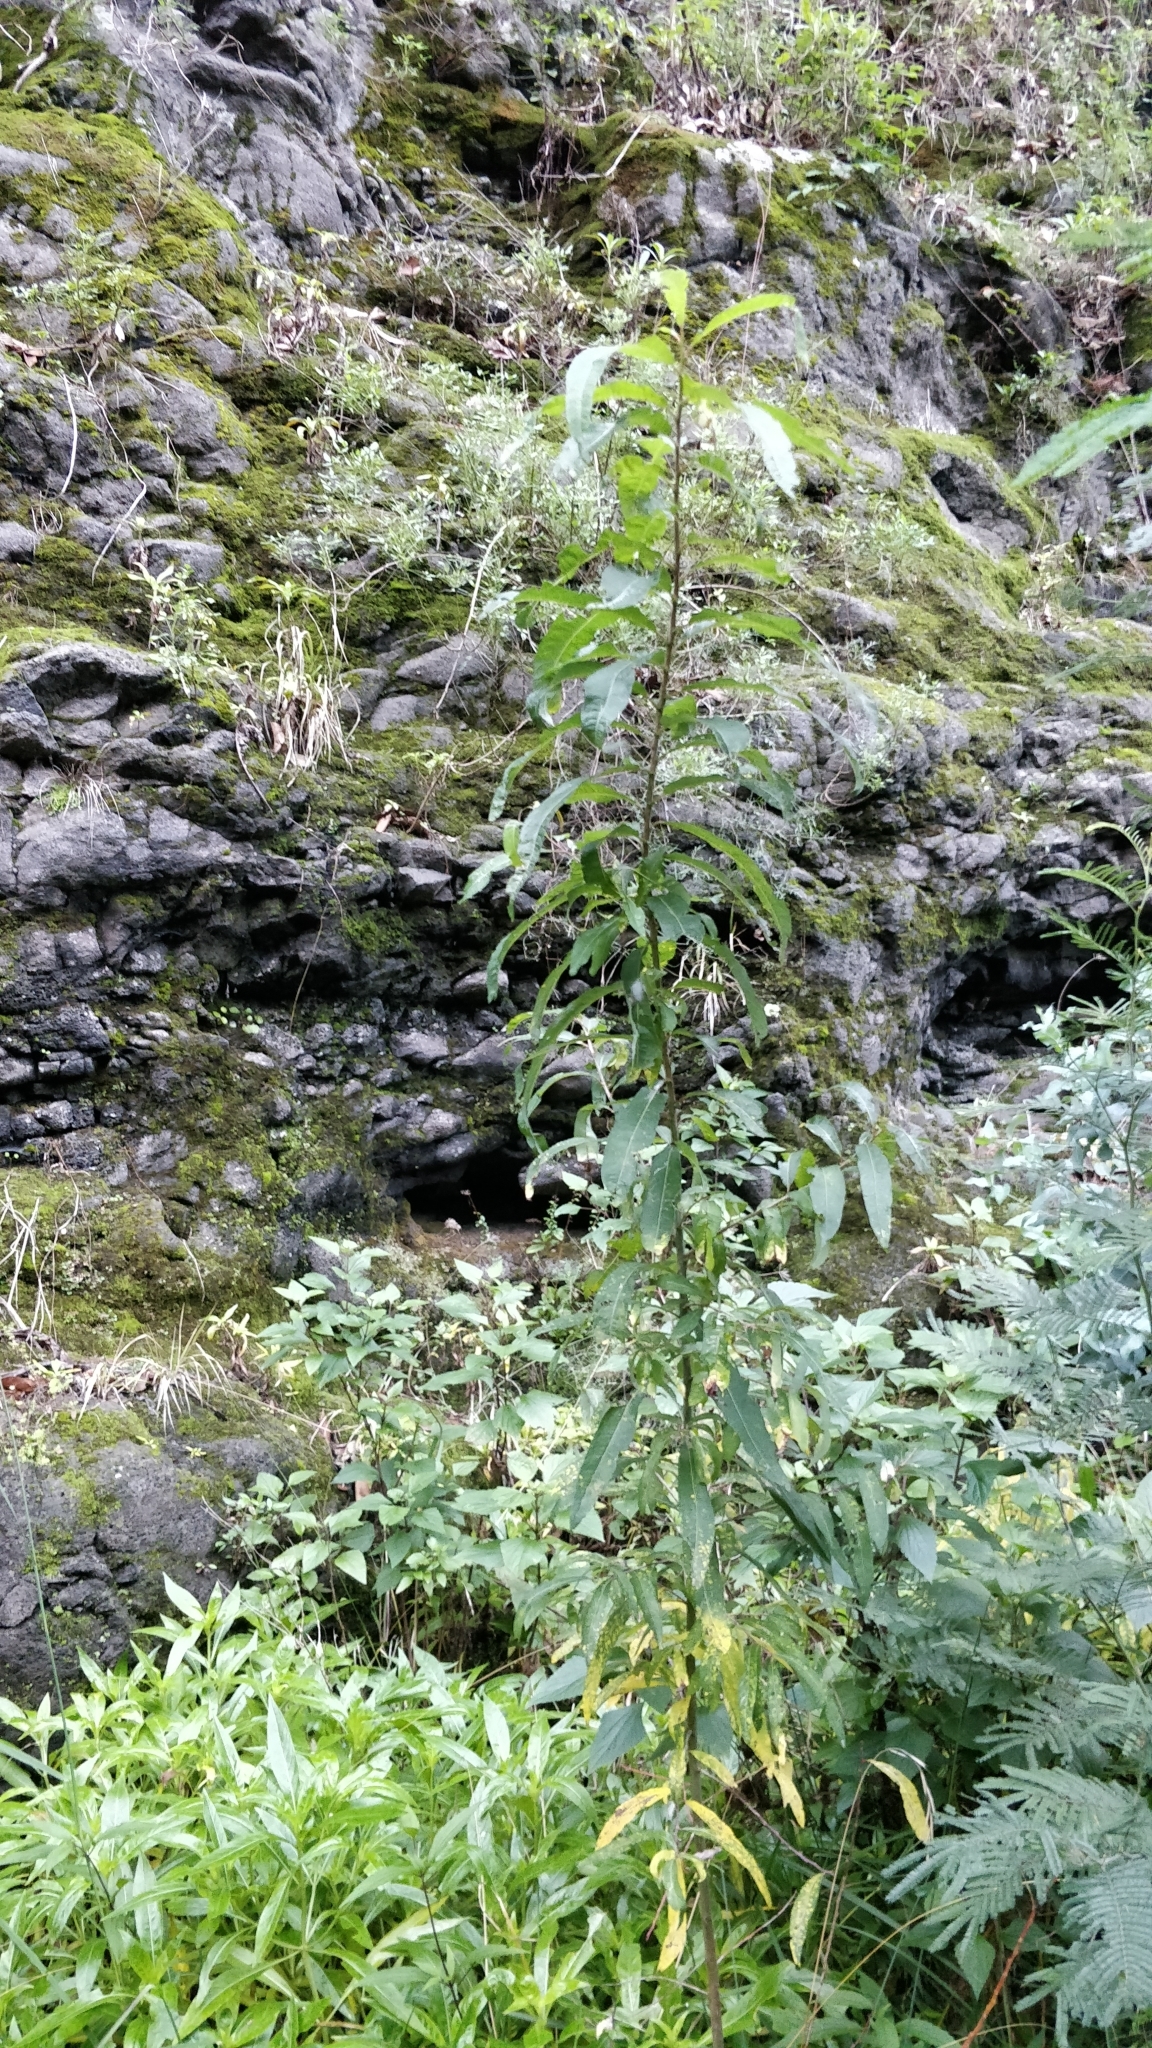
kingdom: Plantae
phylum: Tracheophyta
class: Magnoliopsida
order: Malpighiales
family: Salicaceae
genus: Salix
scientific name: Salix canariensis
